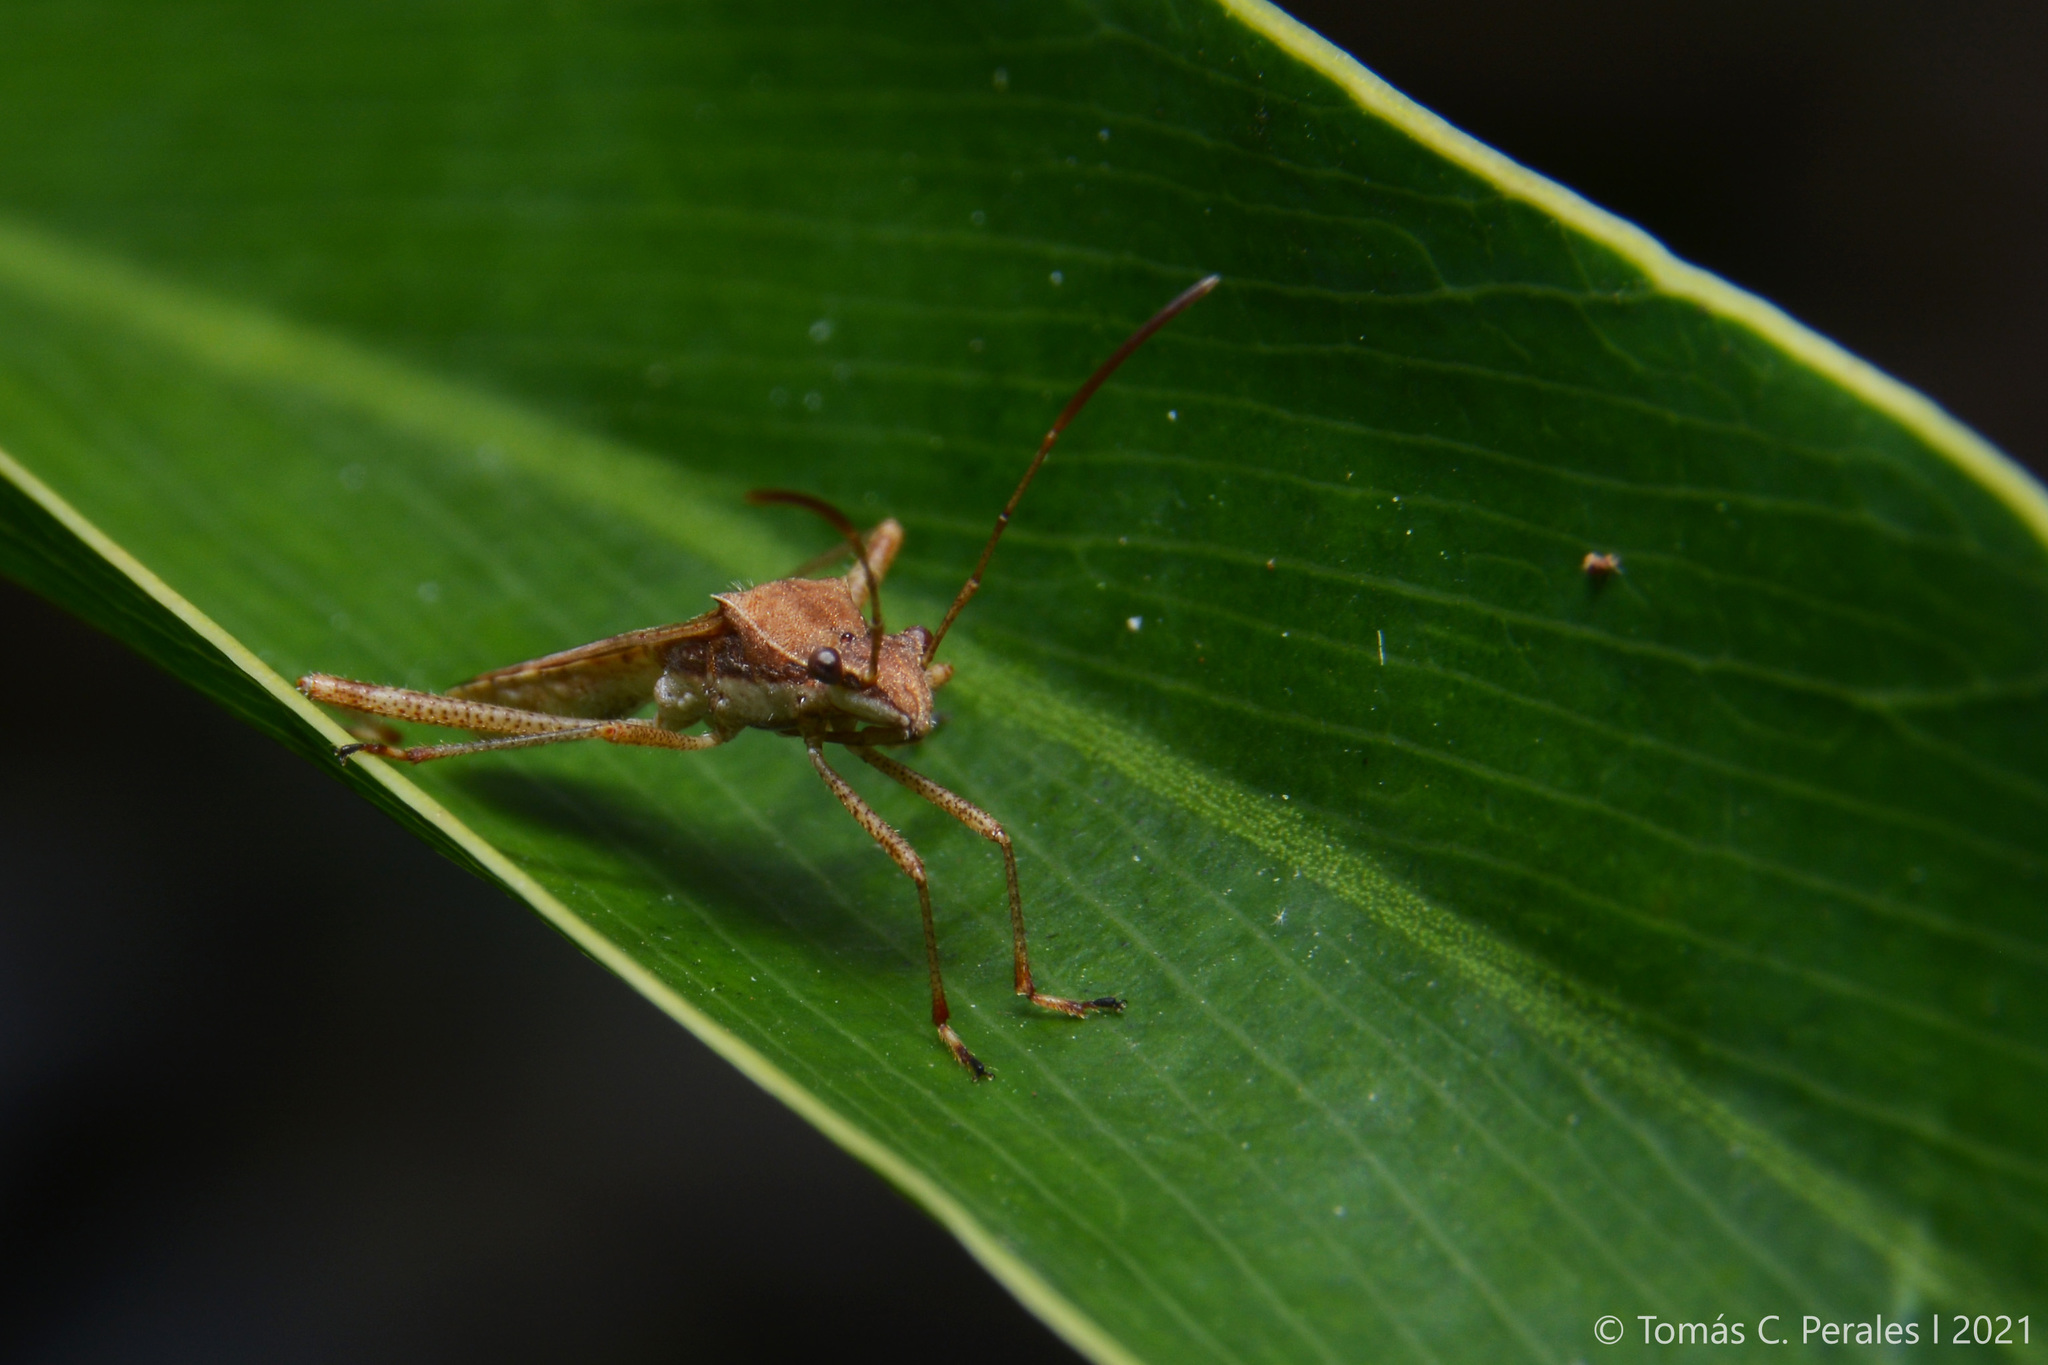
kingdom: Animalia
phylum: Arthropoda
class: Insecta
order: Hemiptera
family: Alydidae
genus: Neomegalotomus
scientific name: Neomegalotomus parvus
